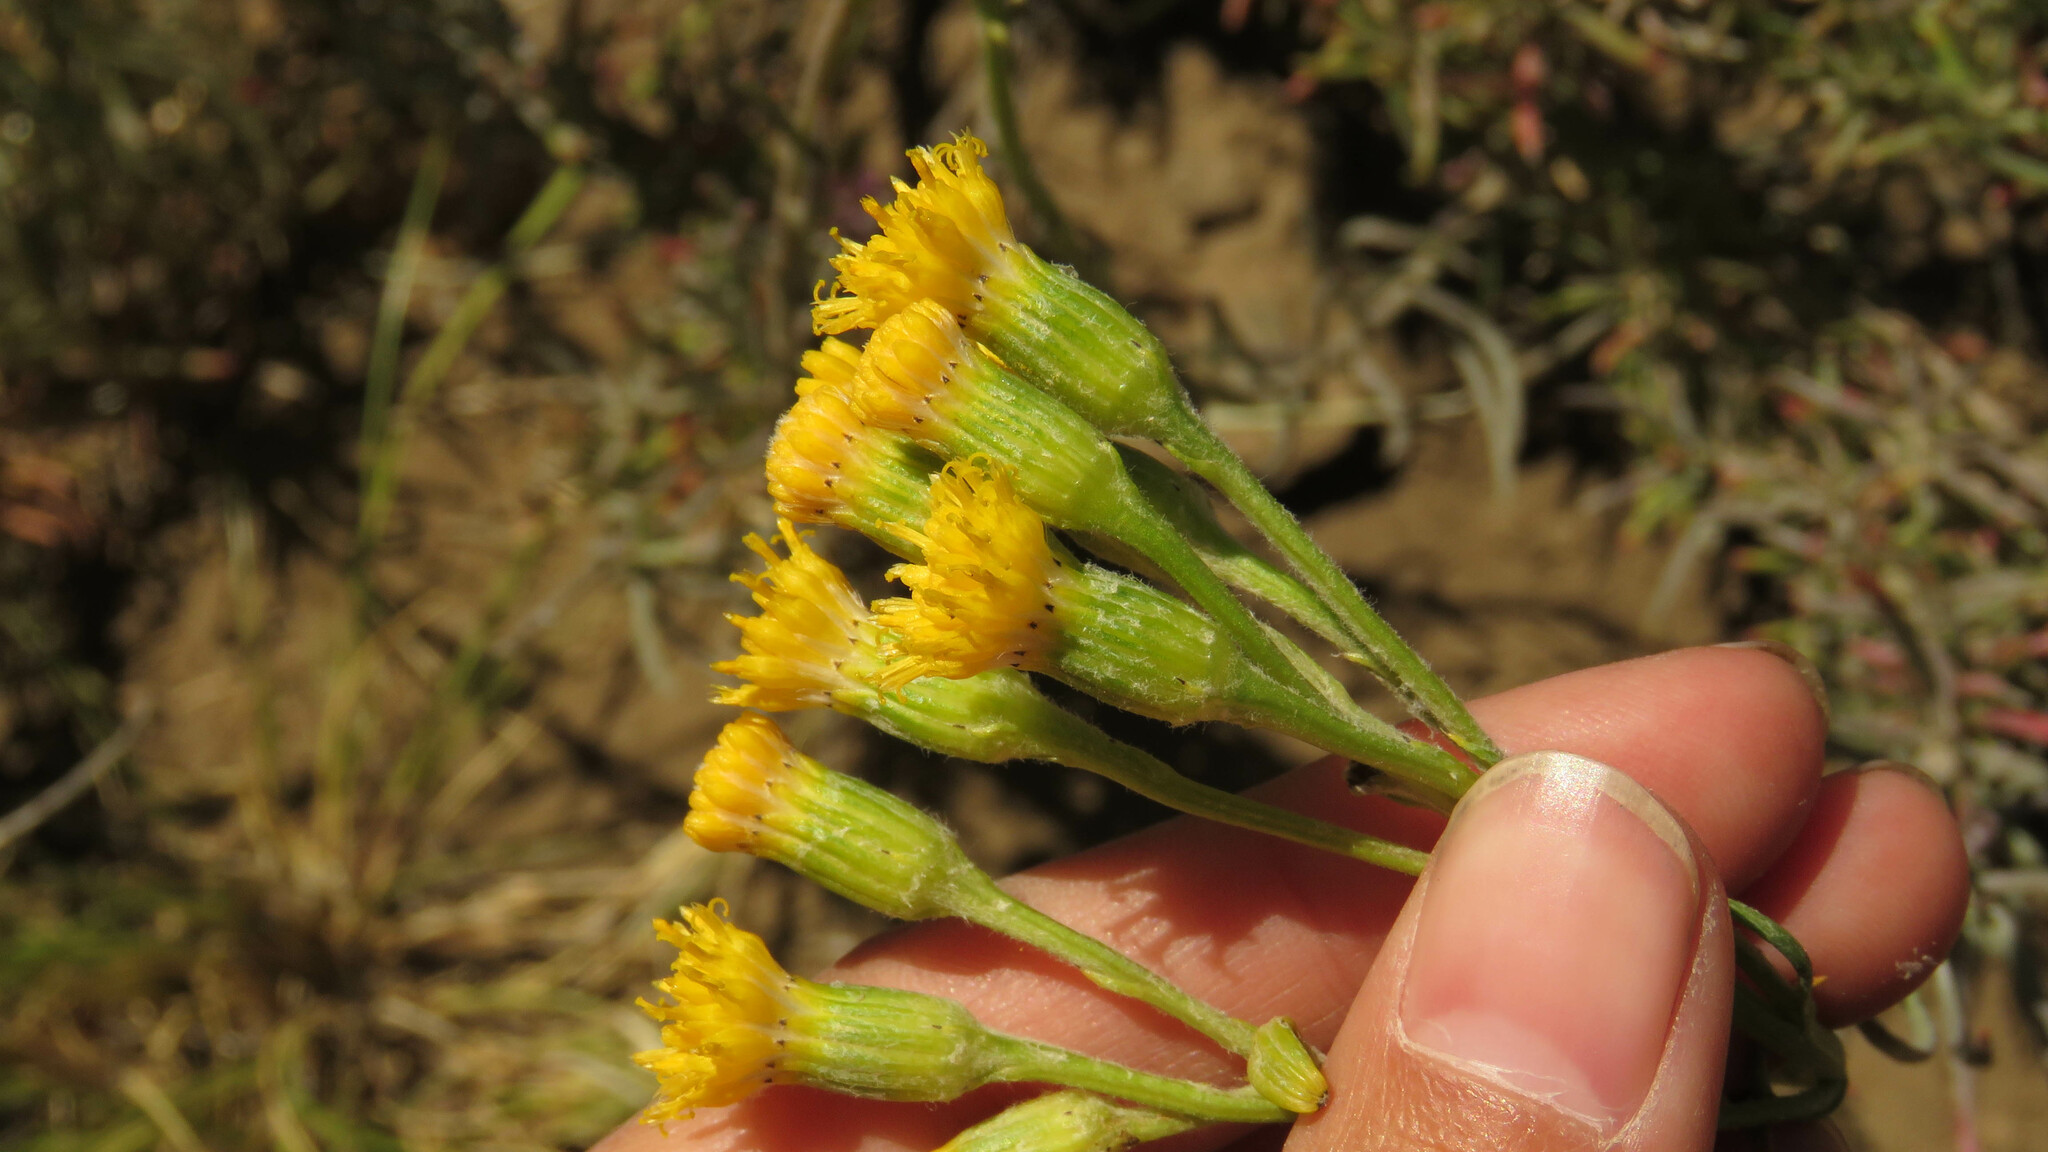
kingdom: Plantae
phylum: Tracheophyta
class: Magnoliopsida
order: Asterales
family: Asteraceae
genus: Senecio
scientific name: Senecio filaginoides
